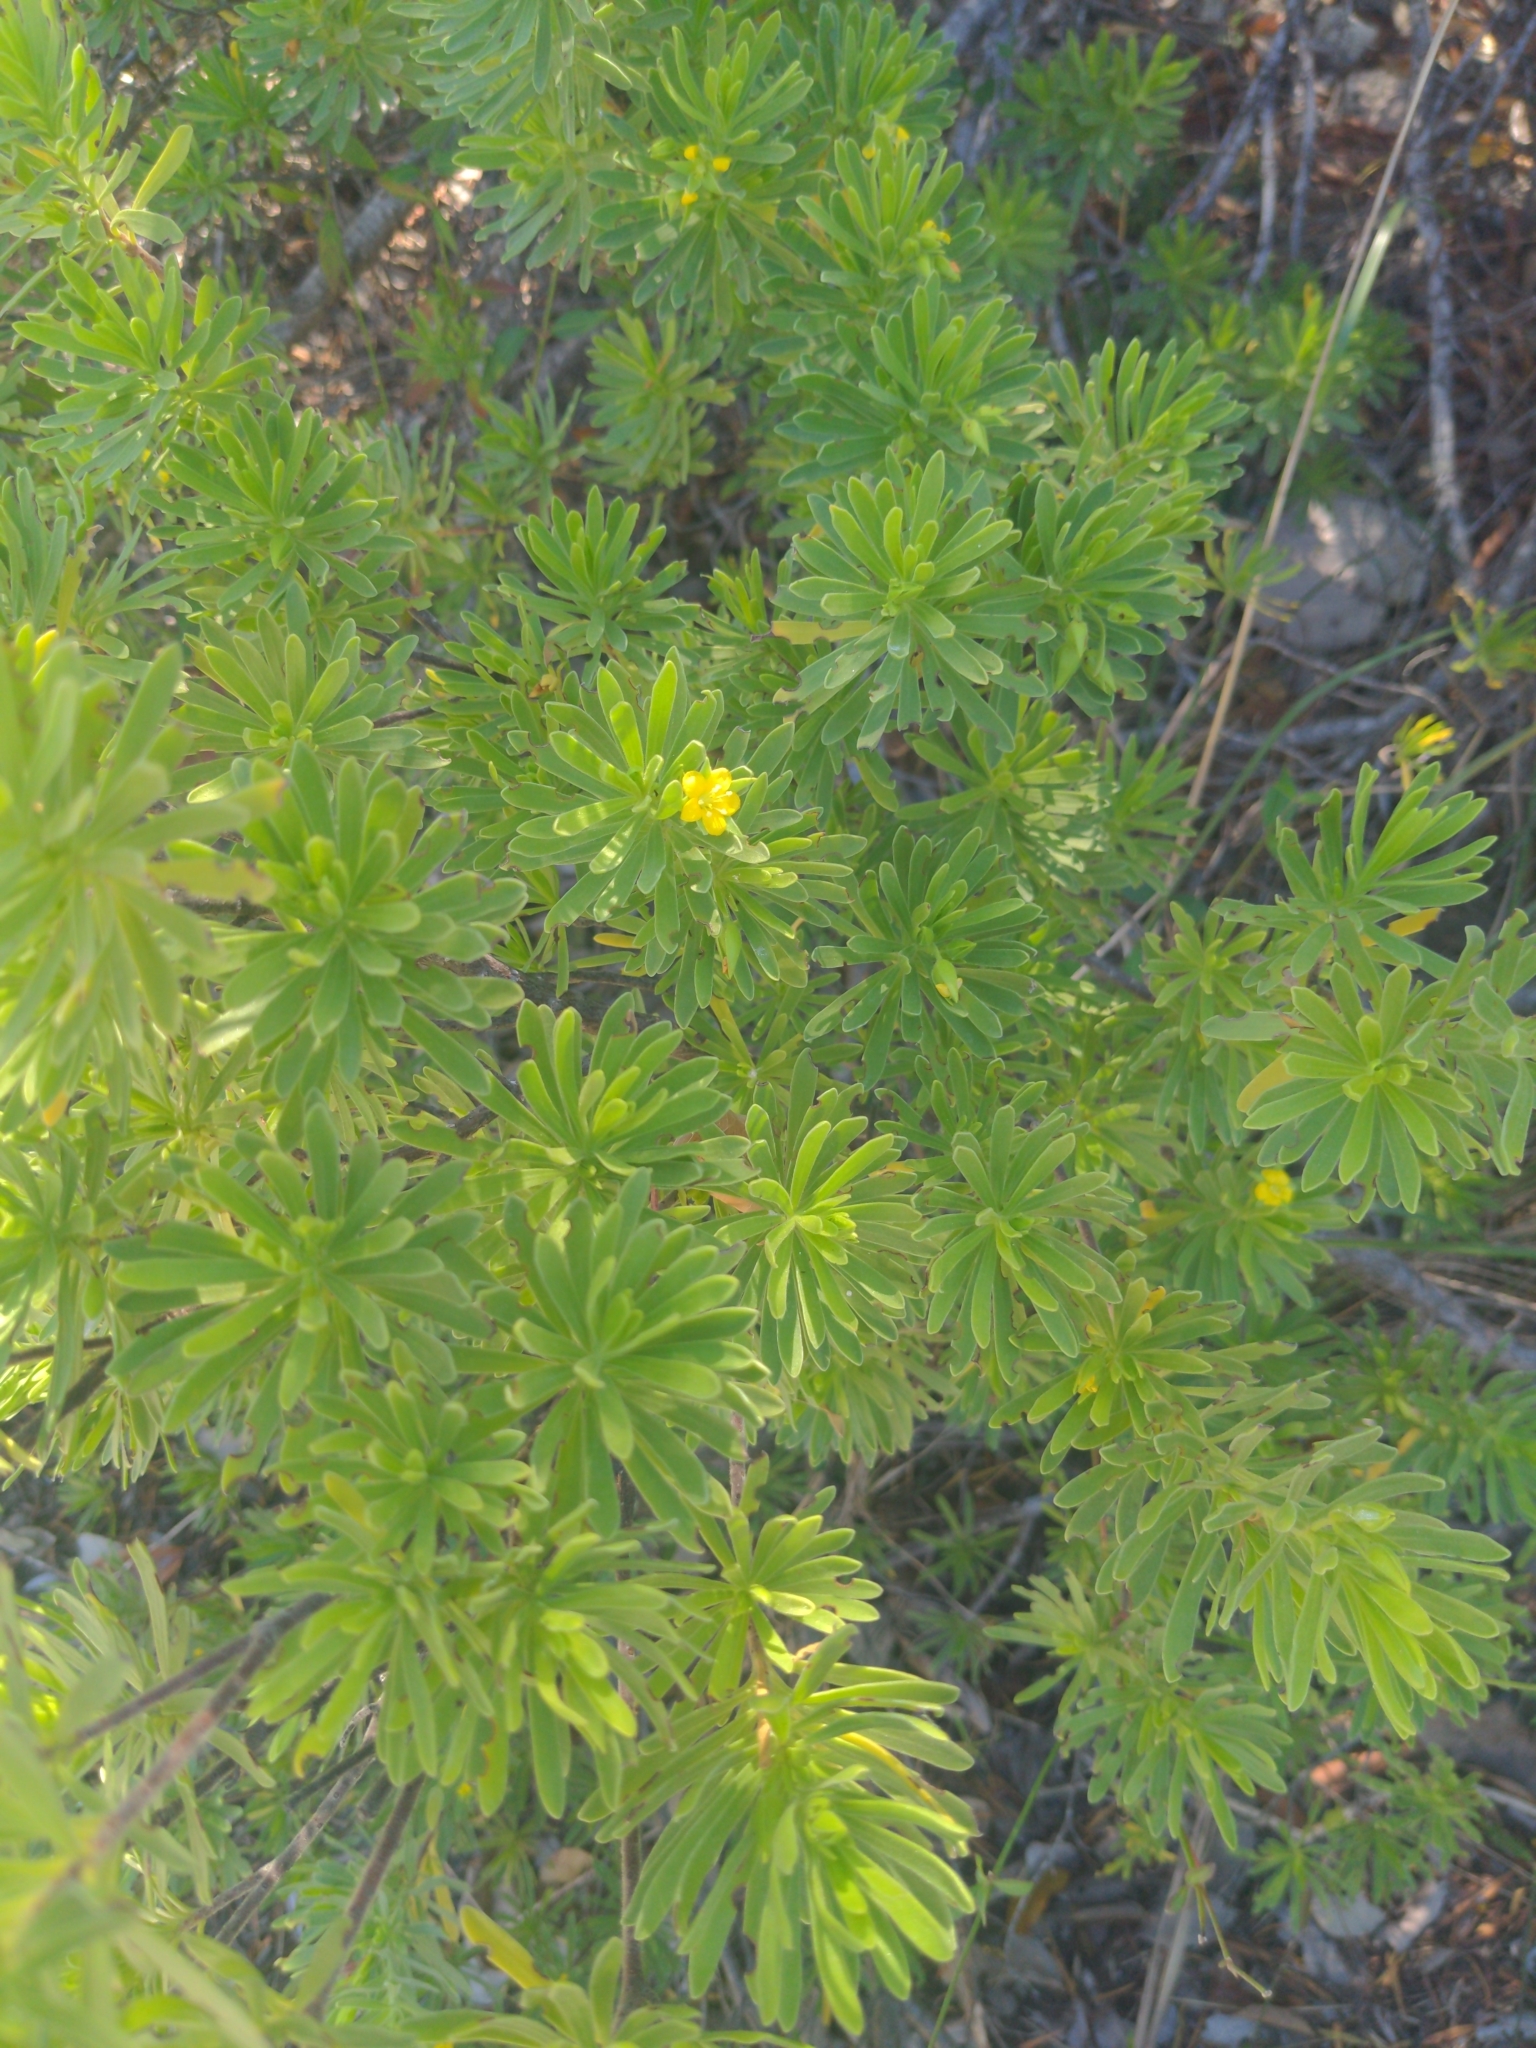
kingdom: Plantae
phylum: Tracheophyta
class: Magnoliopsida
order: Fabales
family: Surianaceae
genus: Suriana
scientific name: Suriana maritima
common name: Bay-cedar
